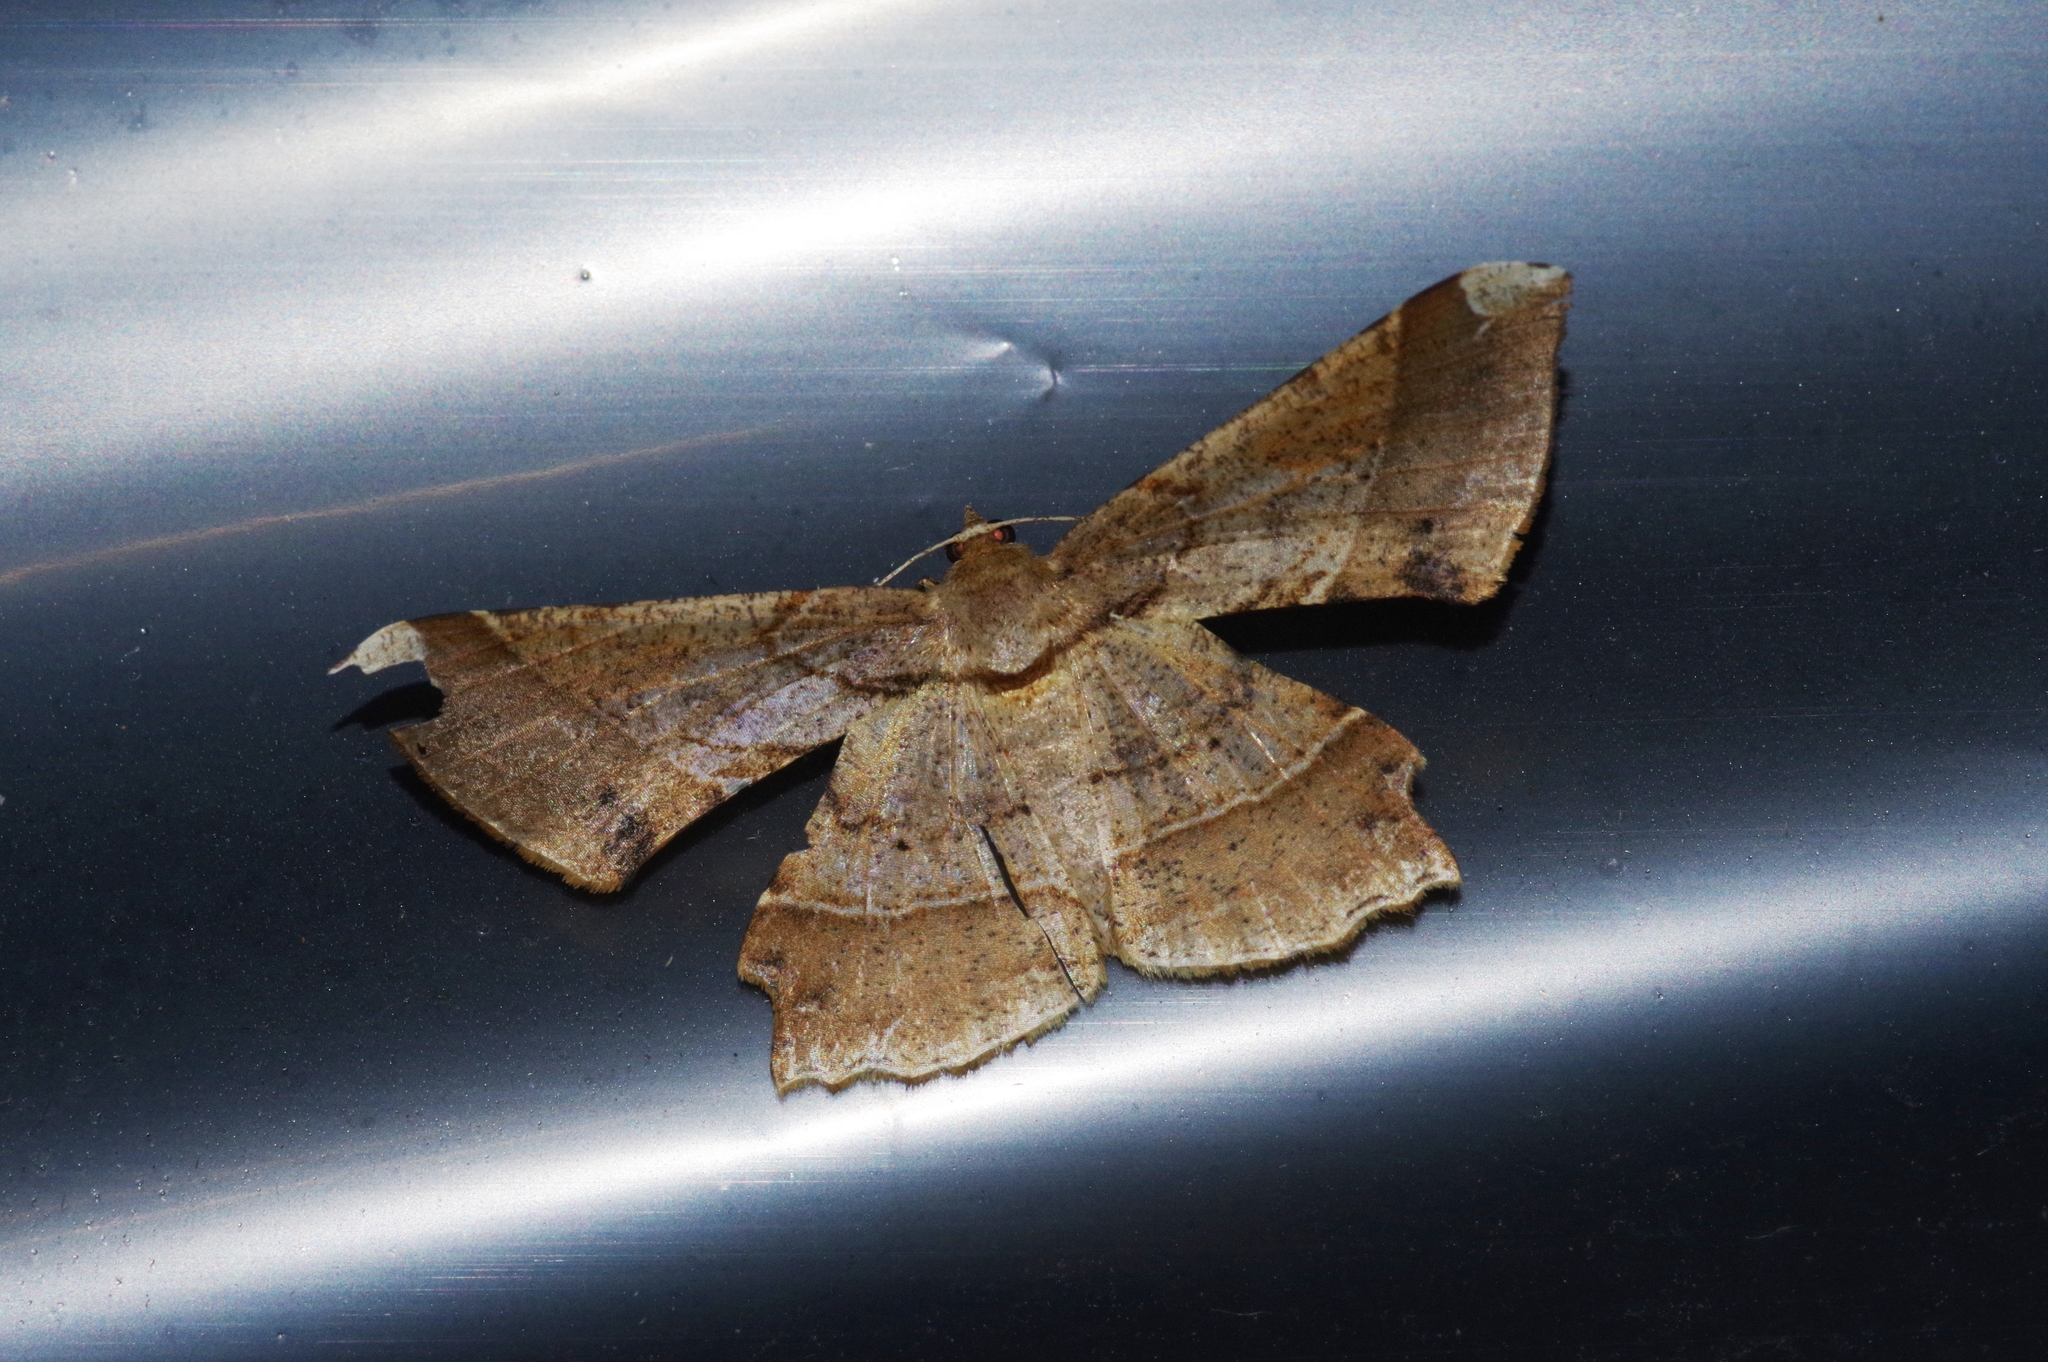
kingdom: Animalia
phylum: Arthropoda
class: Insecta
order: Lepidoptera
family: Geometridae
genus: Krananda
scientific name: Krananda latimarginaria
